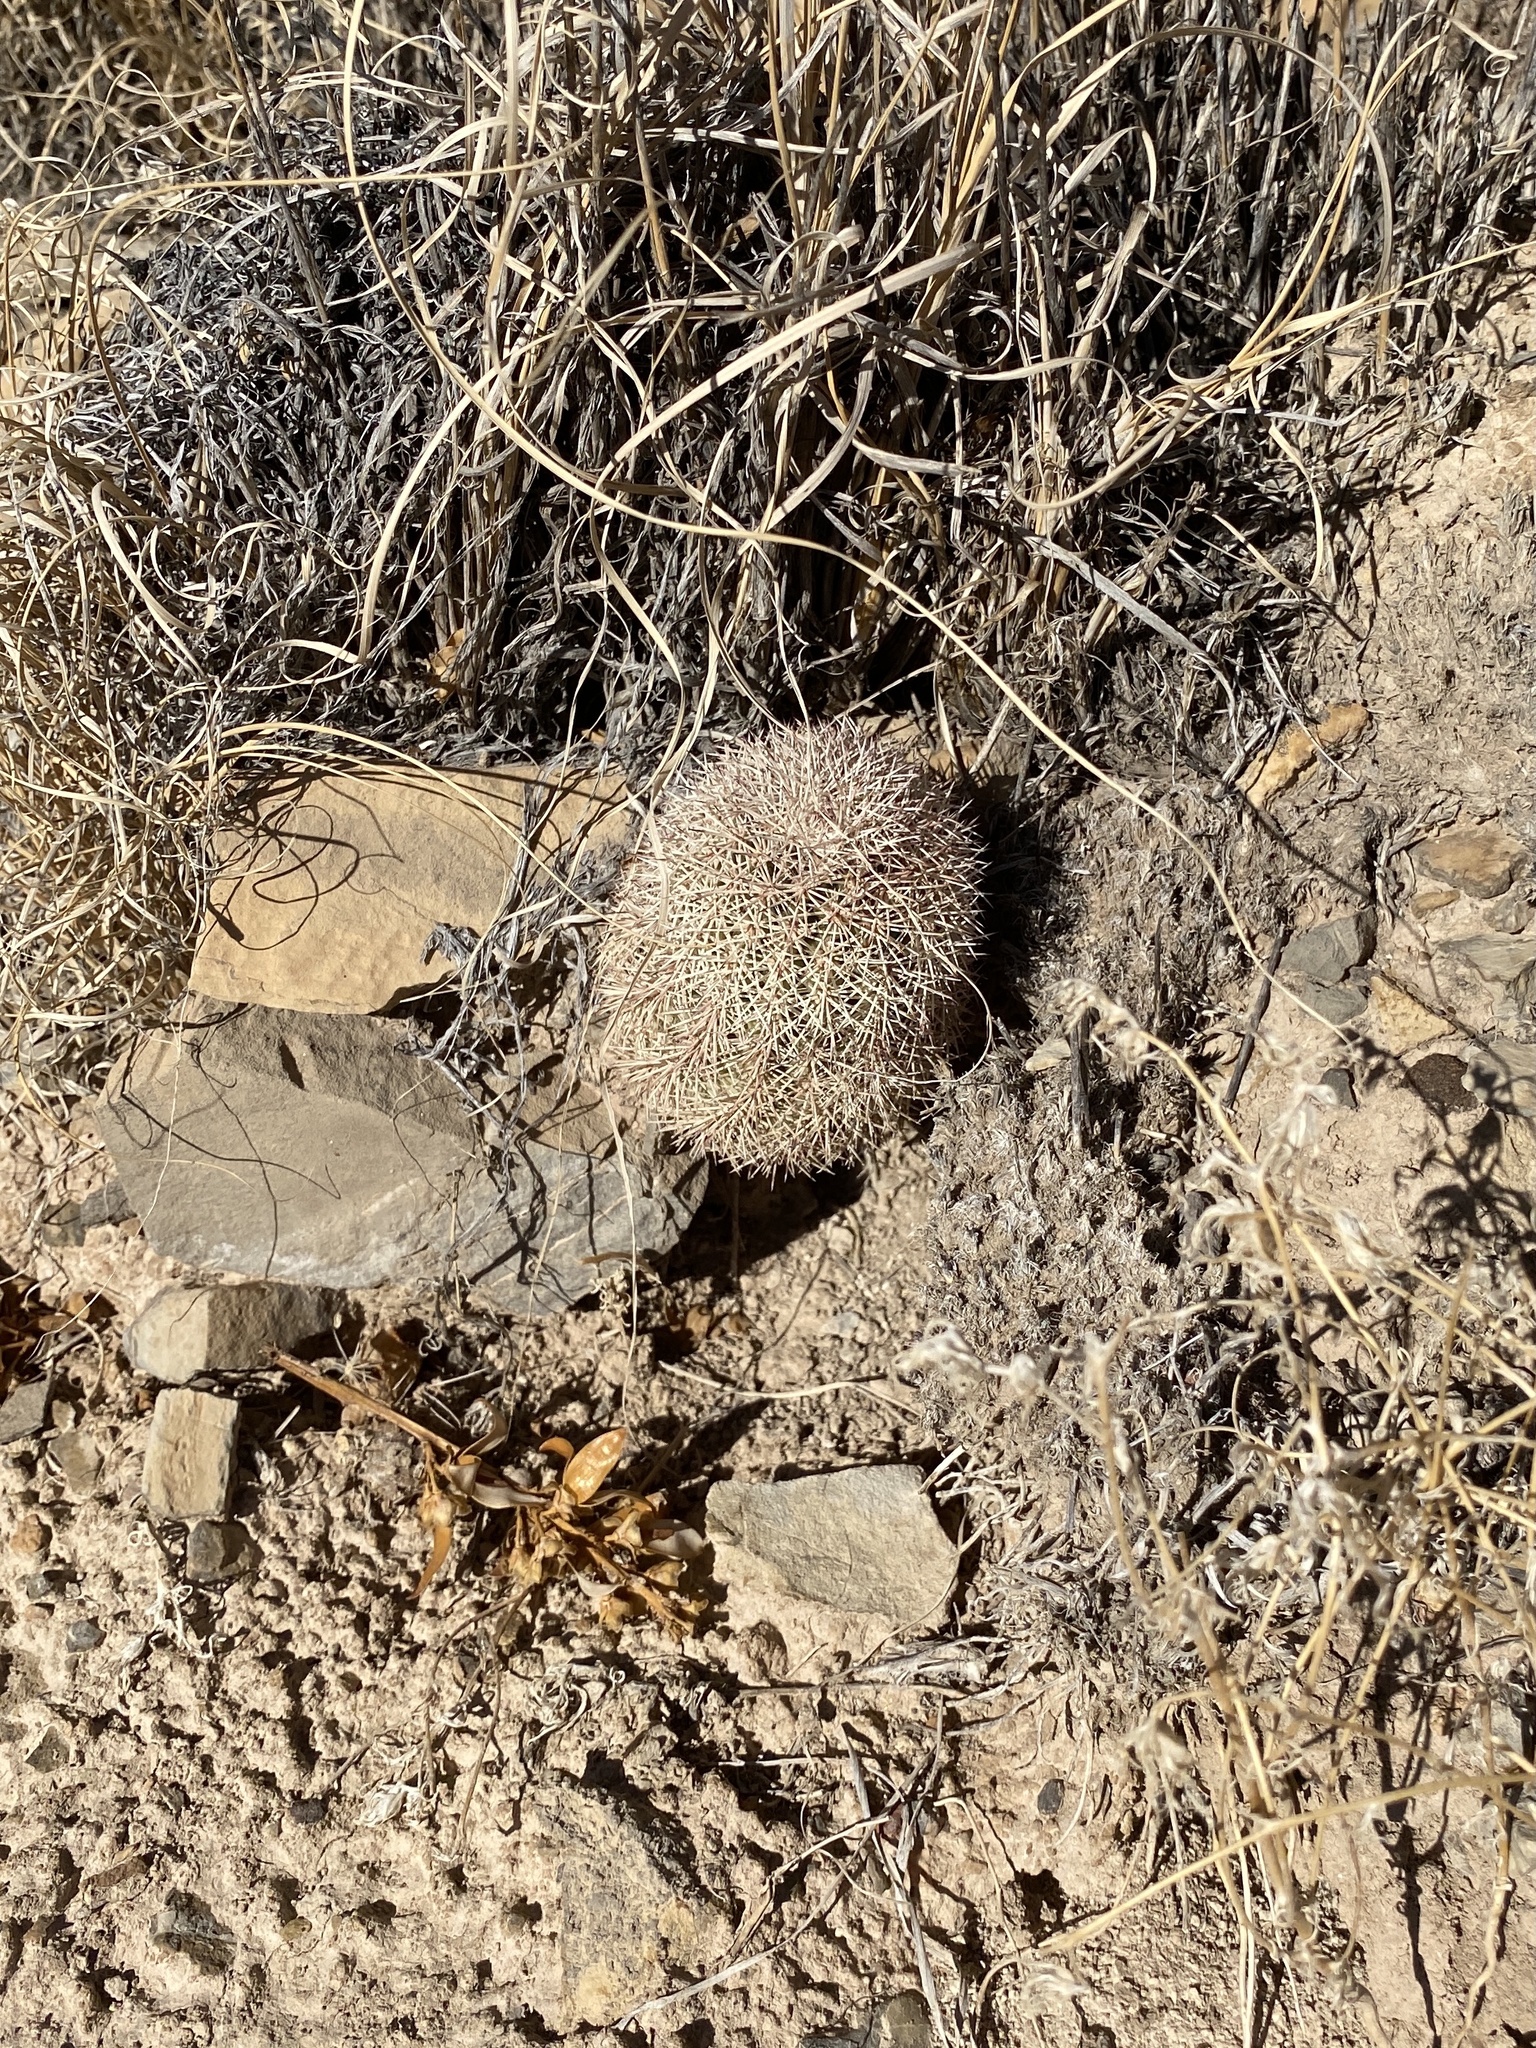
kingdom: Plantae
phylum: Tracheophyta
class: Magnoliopsida
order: Caryophyllales
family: Cactaceae
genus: Echinocereus
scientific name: Echinocereus dasyacanthus
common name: Spiny hedgehog cactus
